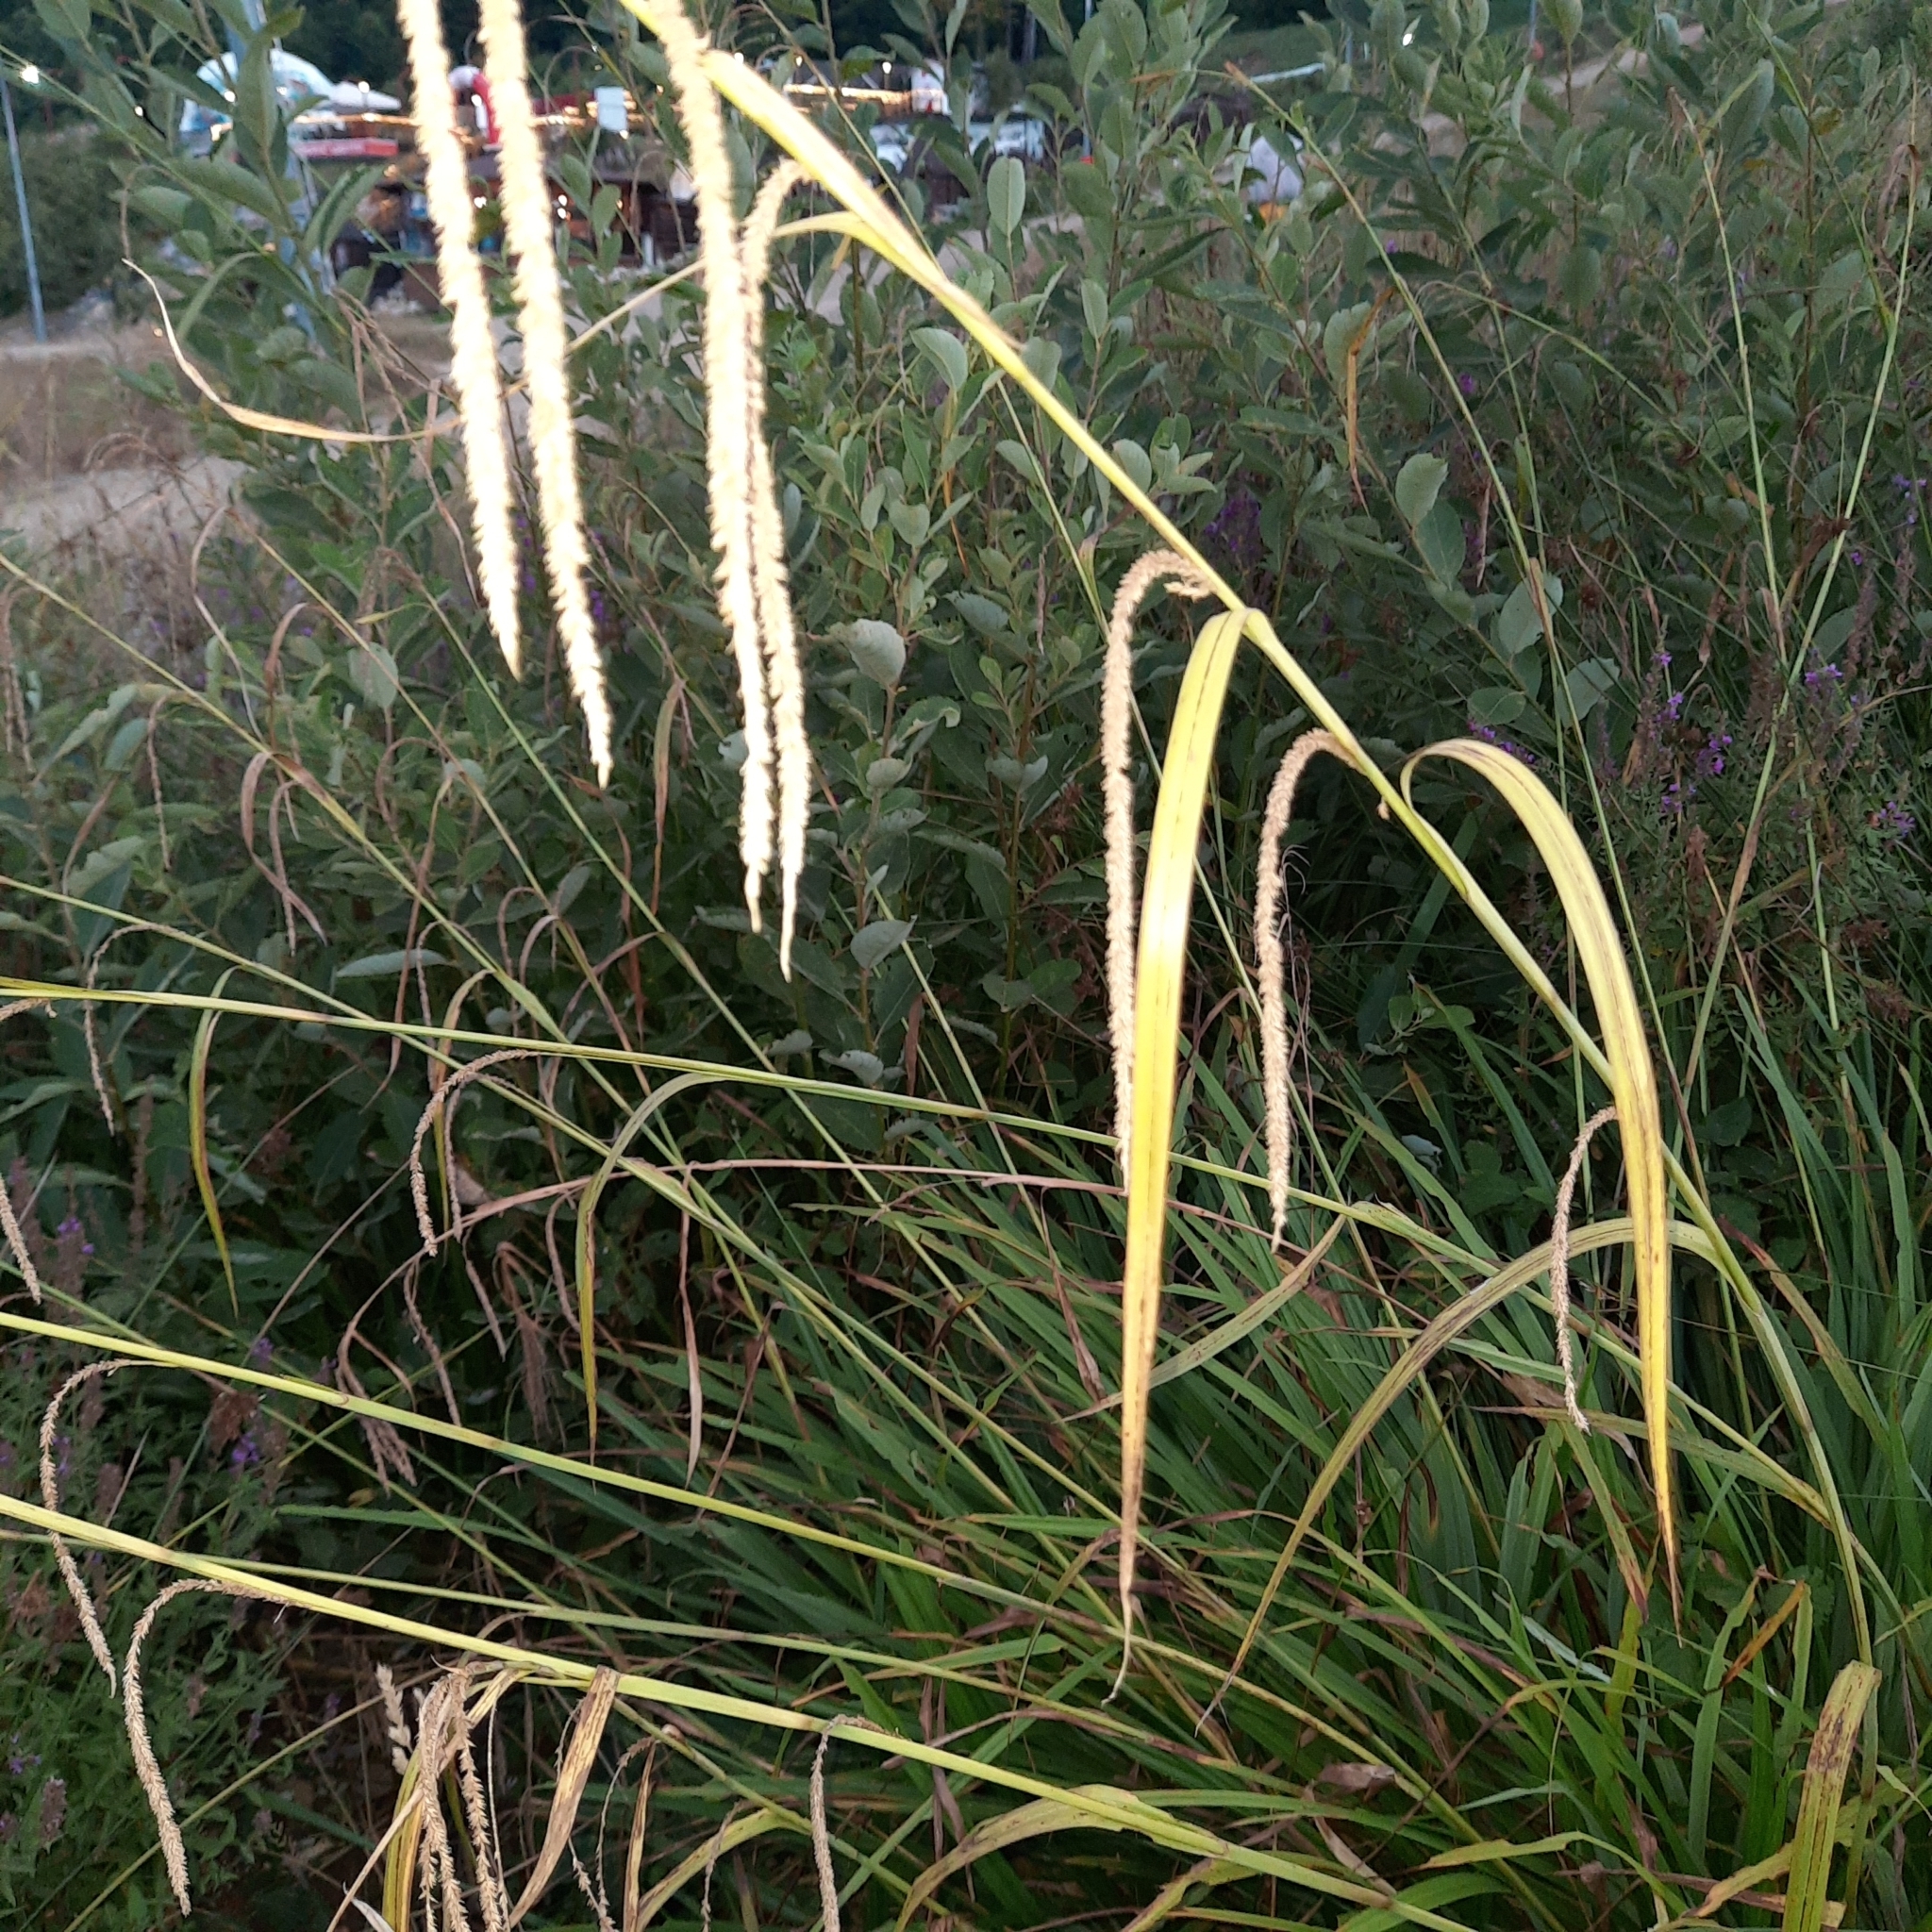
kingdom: Plantae
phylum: Tracheophyta
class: Liliopsida
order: Poales
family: Cyperaceae
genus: Carex
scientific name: Carex pendula
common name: Pendulous sedge
